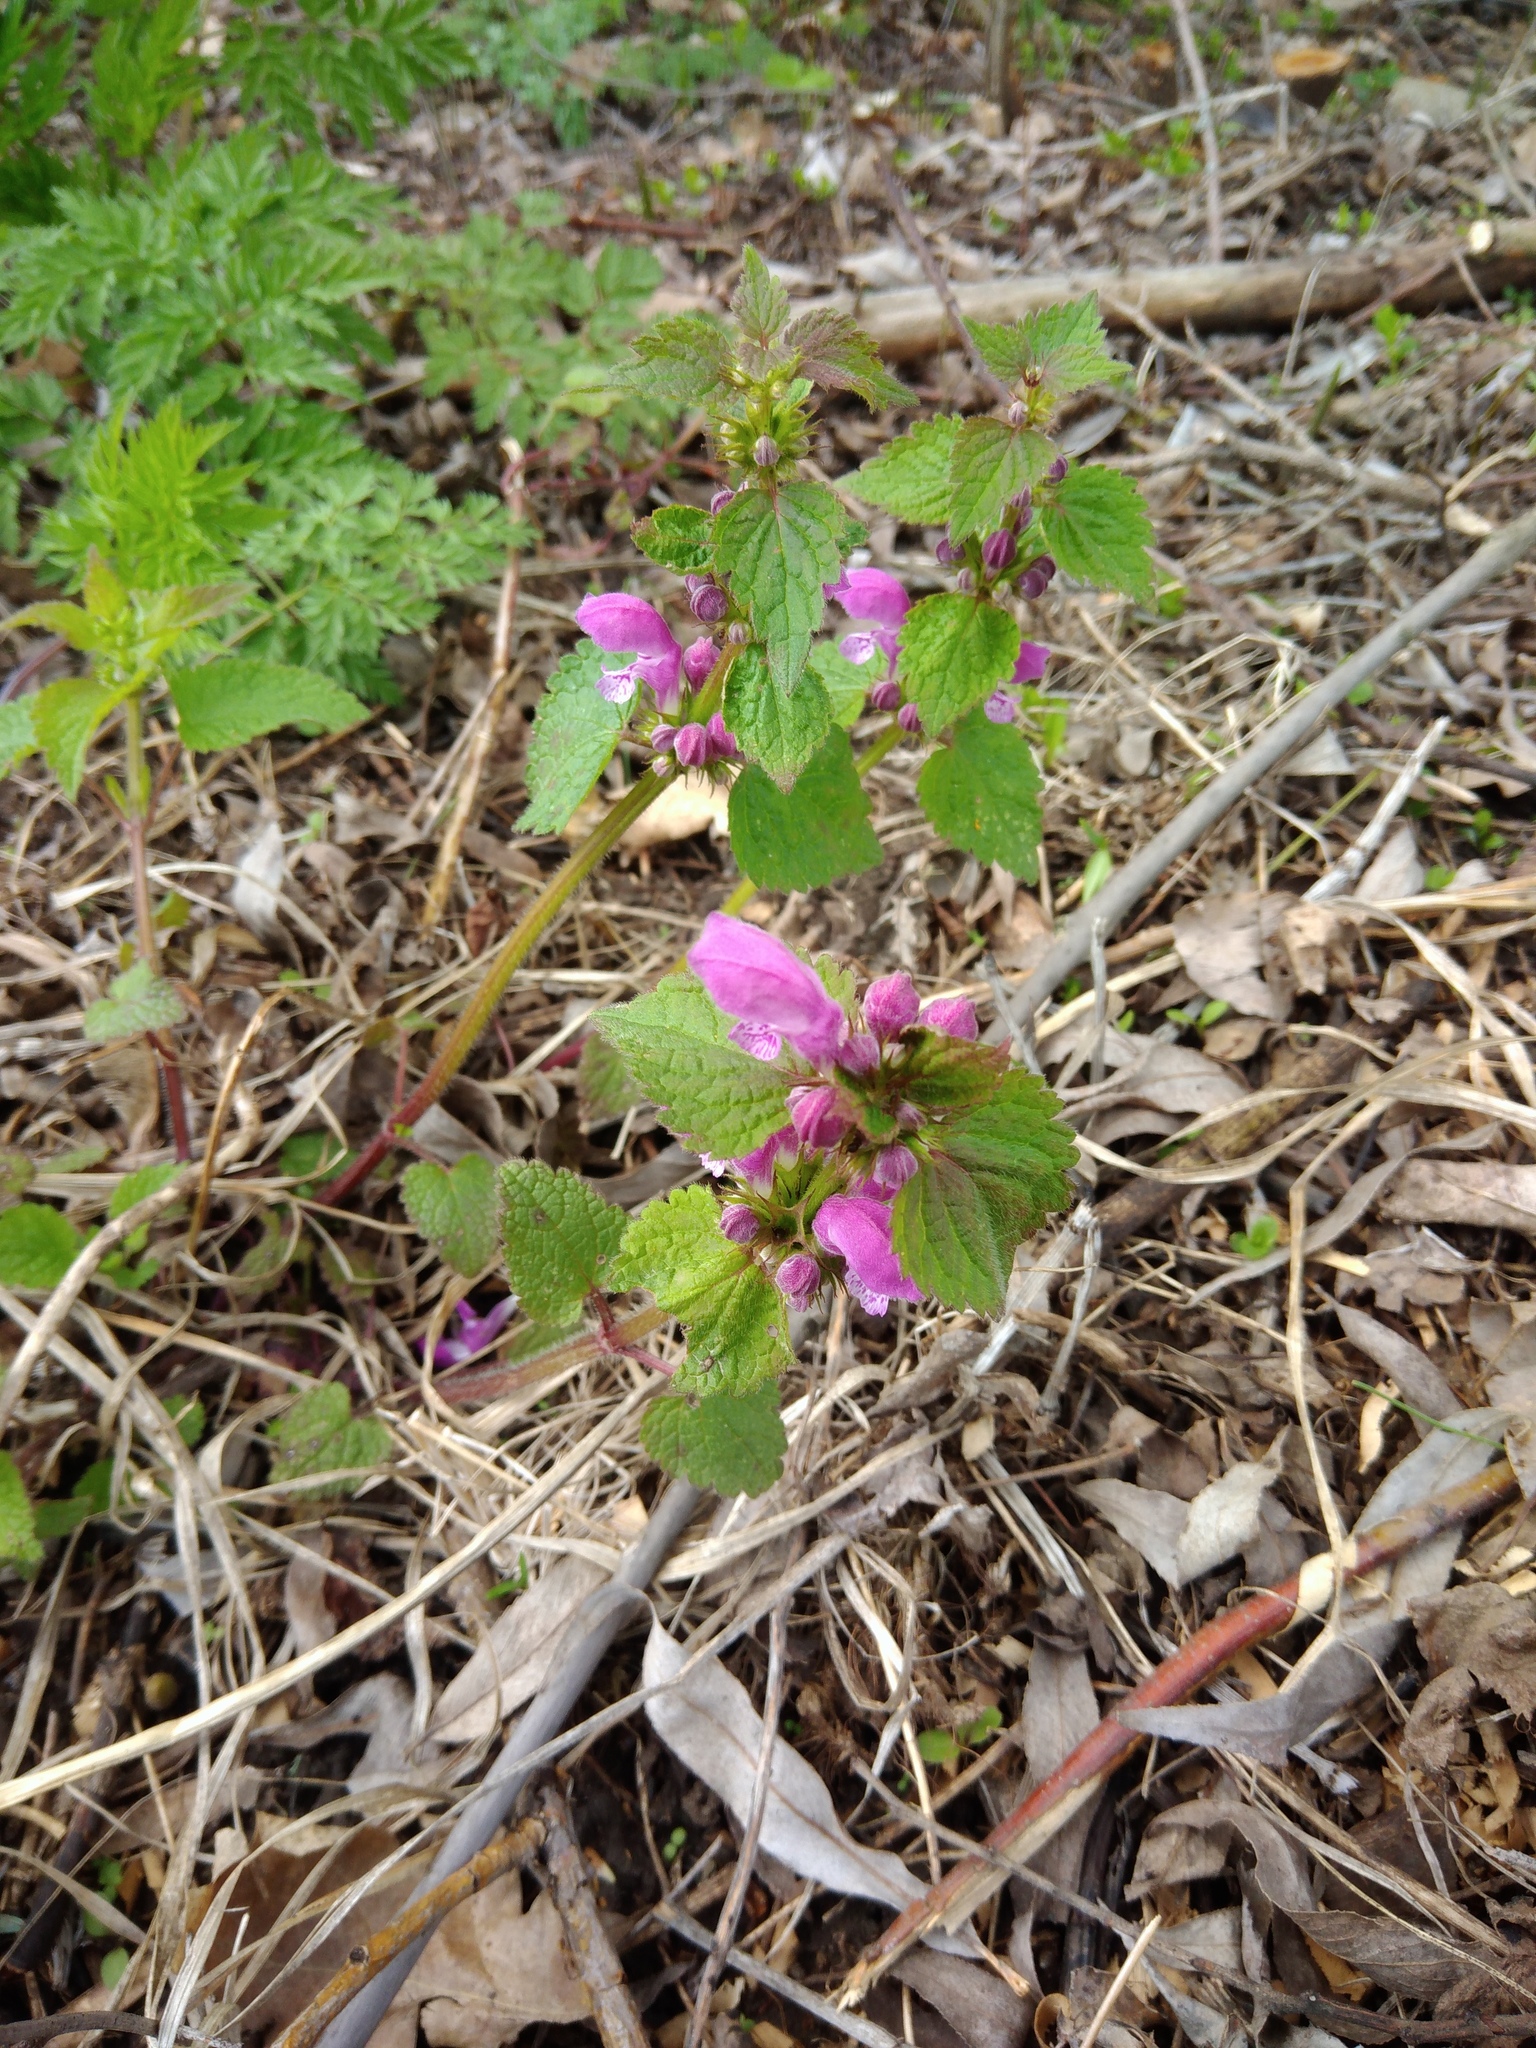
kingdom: Plantae
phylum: Tracheophyta
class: Magnoliopsida
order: Lamiales
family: Lamiaceae
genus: Lamium
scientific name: Lamium maculatum
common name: Spotted dead-nettle
